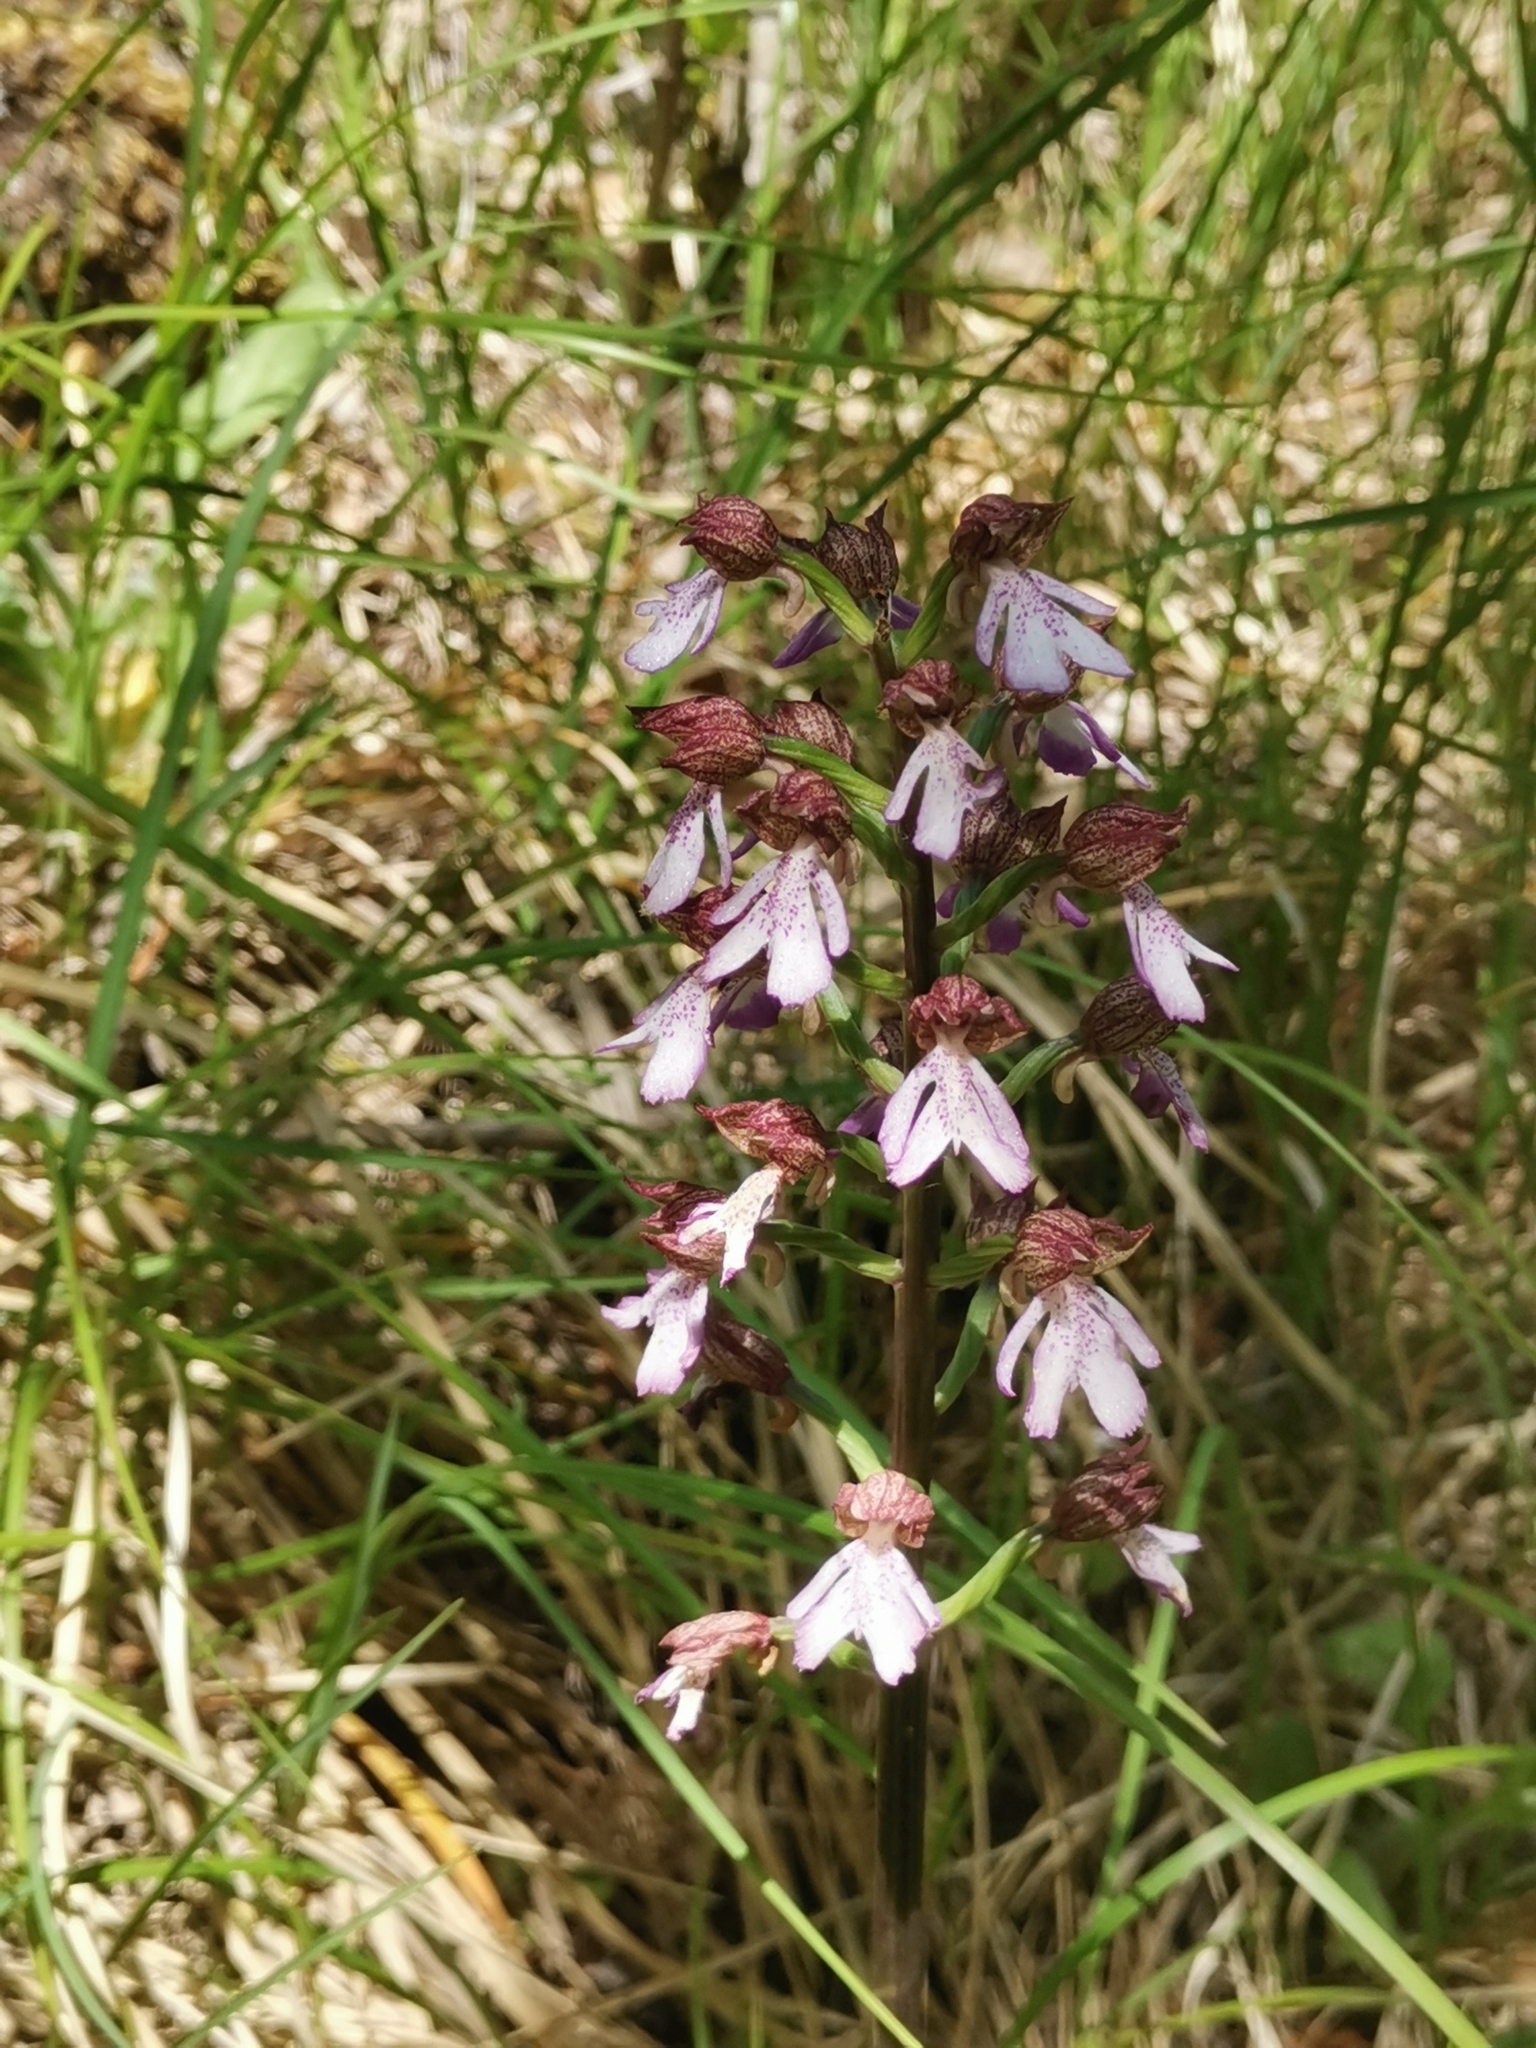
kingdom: Plantae
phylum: Tracheophyta
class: Liliopsida
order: Asparagales
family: Orchidaceae
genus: Orchis
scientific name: Orchis purpurea
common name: Lady orchid
